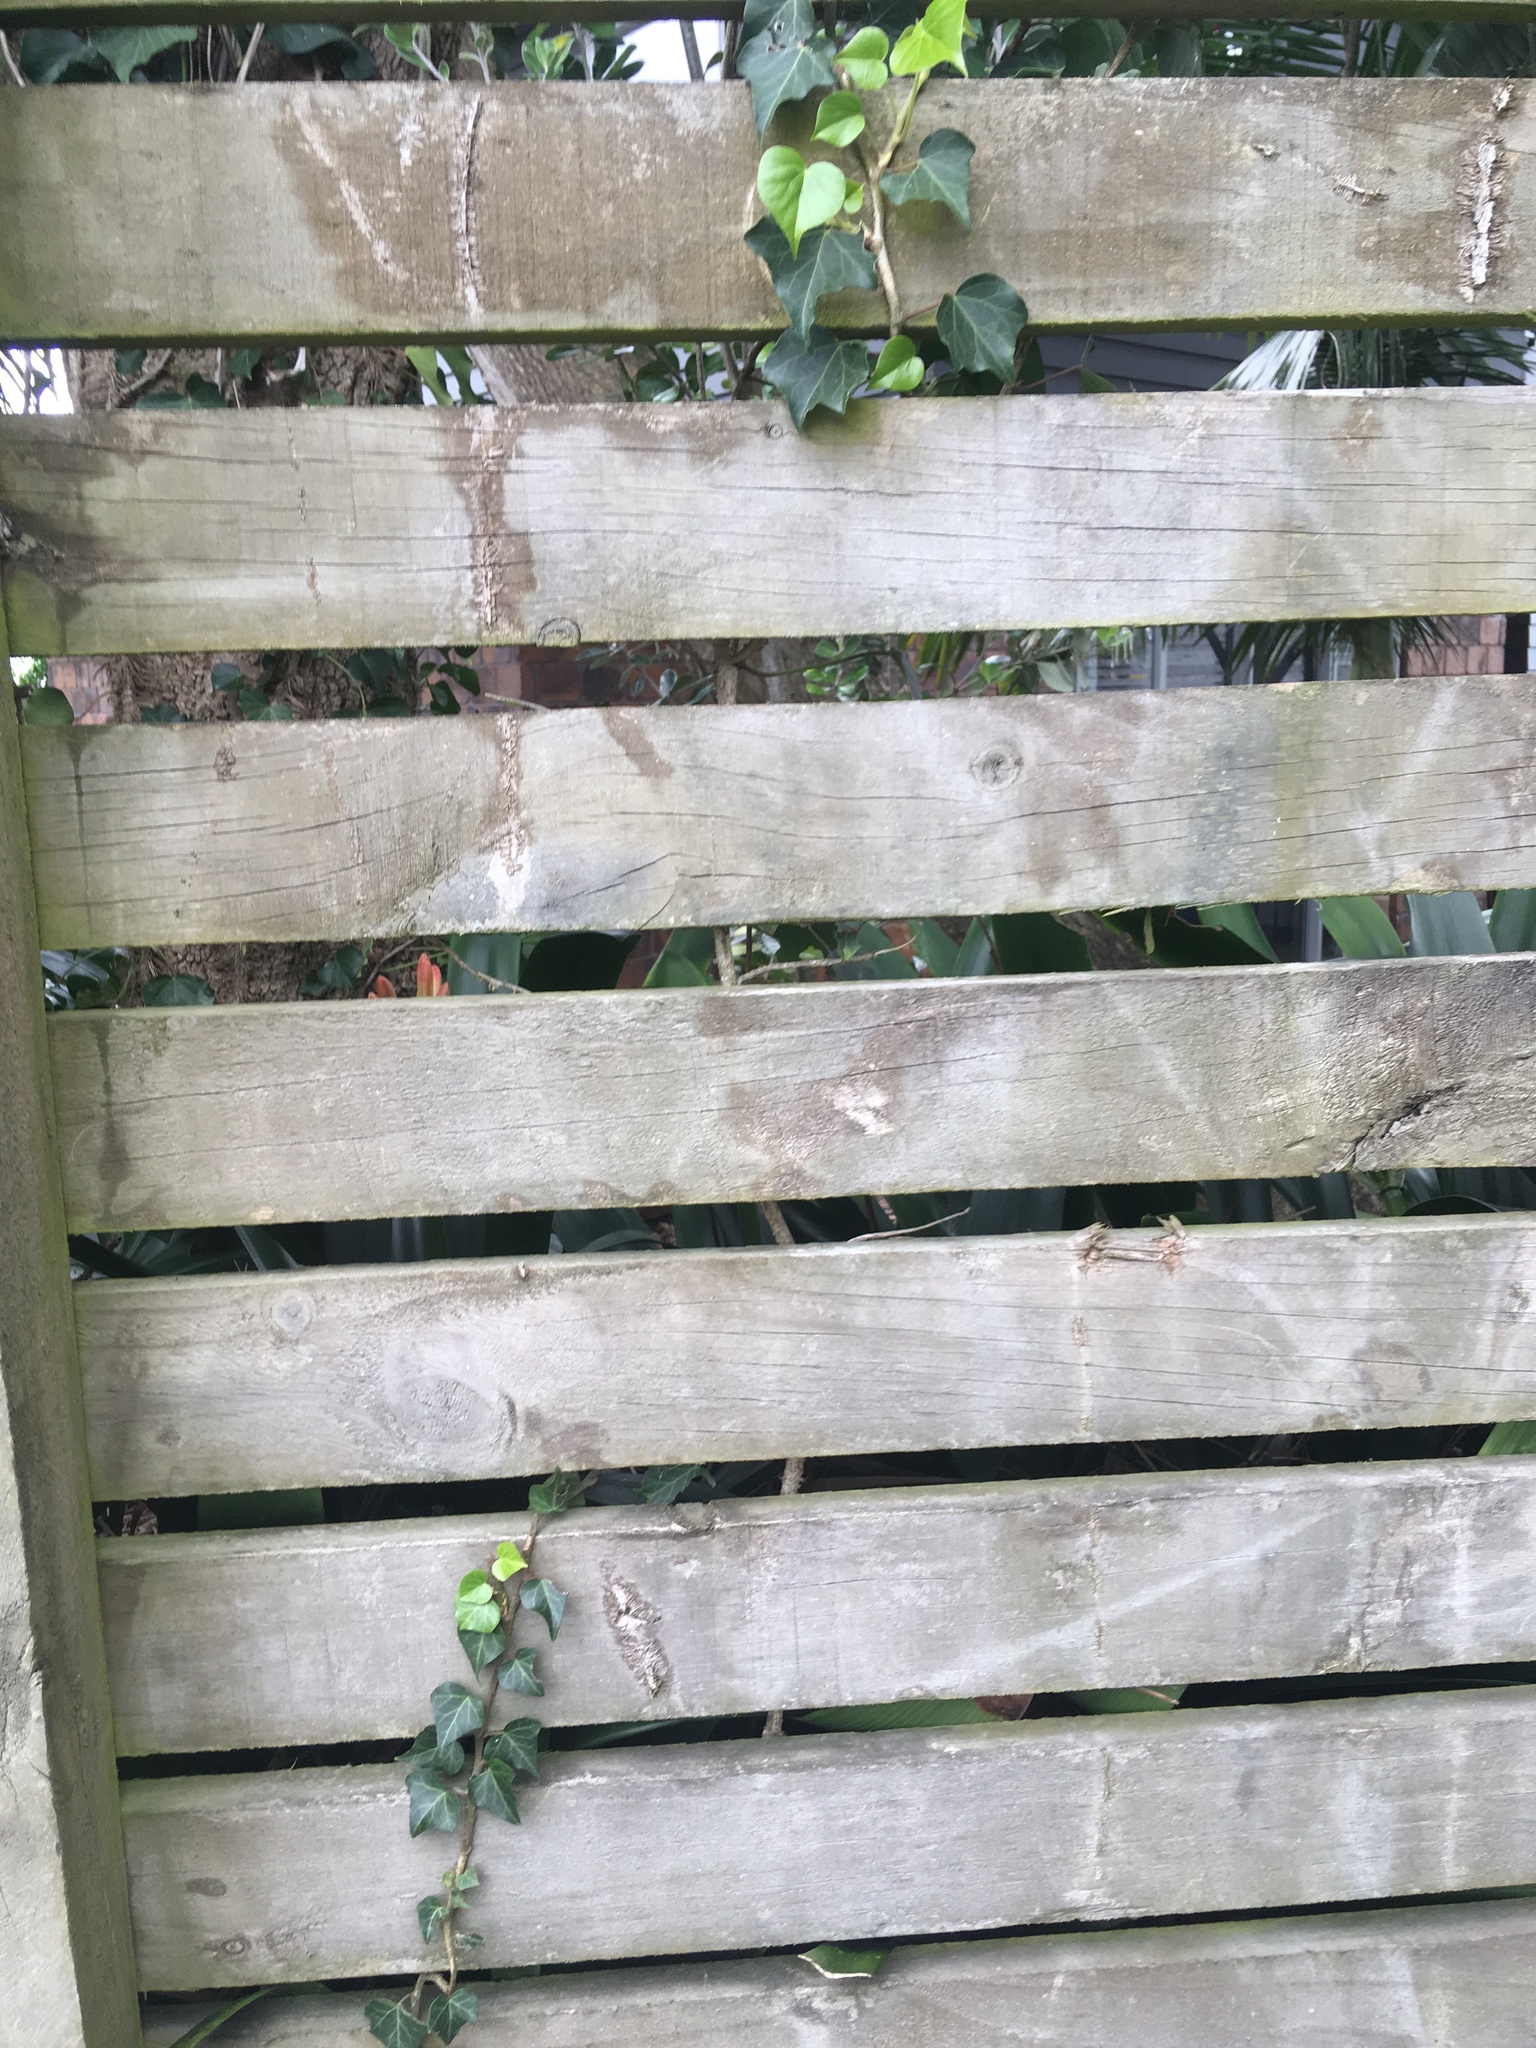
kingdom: Plantae
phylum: Tracheophyta
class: Magnoliopsida
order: Apiales
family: Araliaceae
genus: Hedera
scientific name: Hedera helix
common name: Ivy
